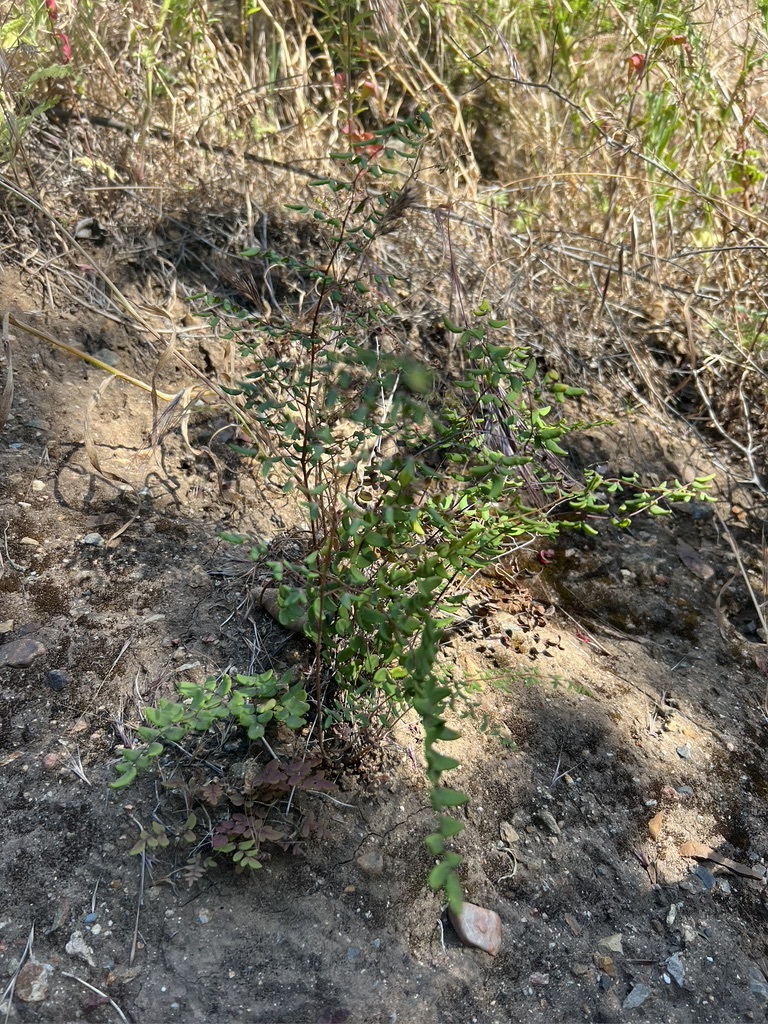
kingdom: Plantae
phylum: Tracheophyta
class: Polypodiopsida
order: Polypodiales
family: Pteridaceae
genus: Pellaea
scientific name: Pellaea andromedifolia
